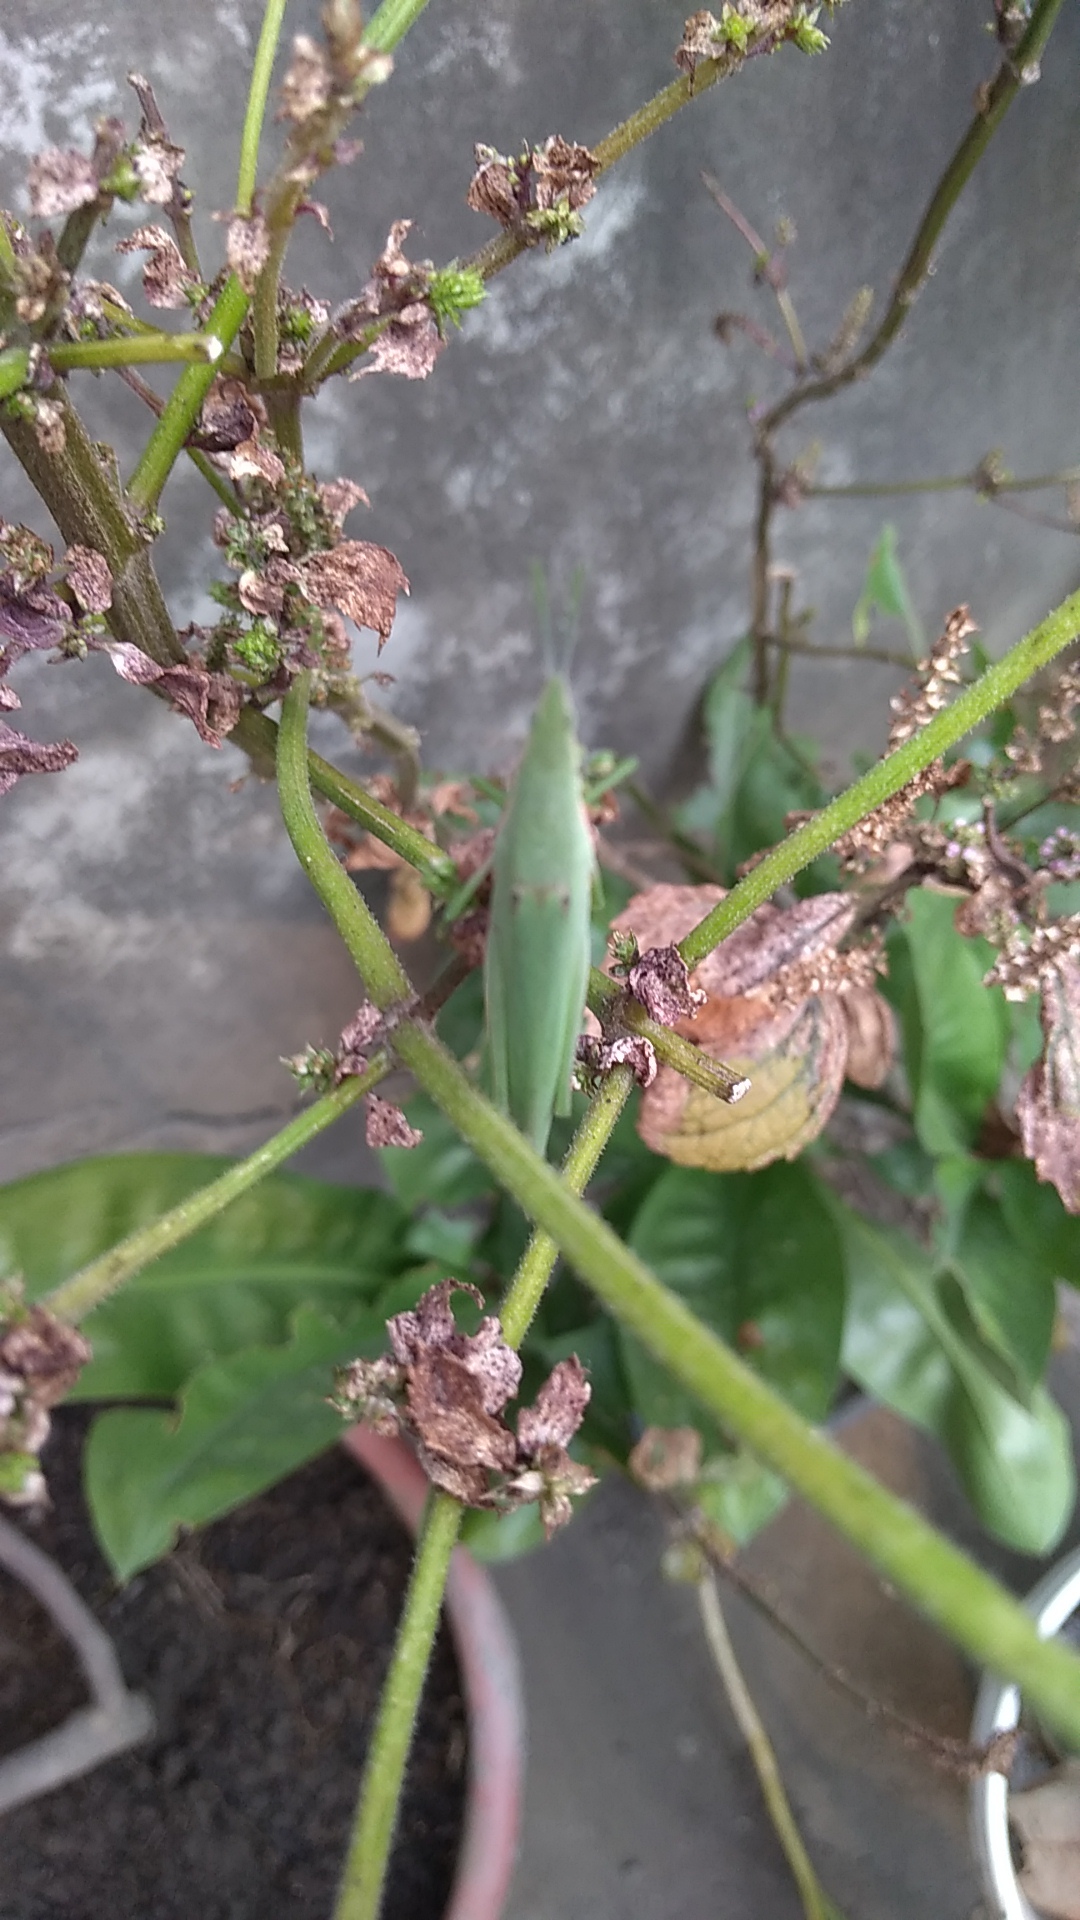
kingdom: Animalia
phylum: Arthropoda
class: Insecta
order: Orthoptera
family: Pyrgomorphidae
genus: Atractomorpha
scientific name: Atractomorpha sinensis
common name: Pinkwinged grasshopper
